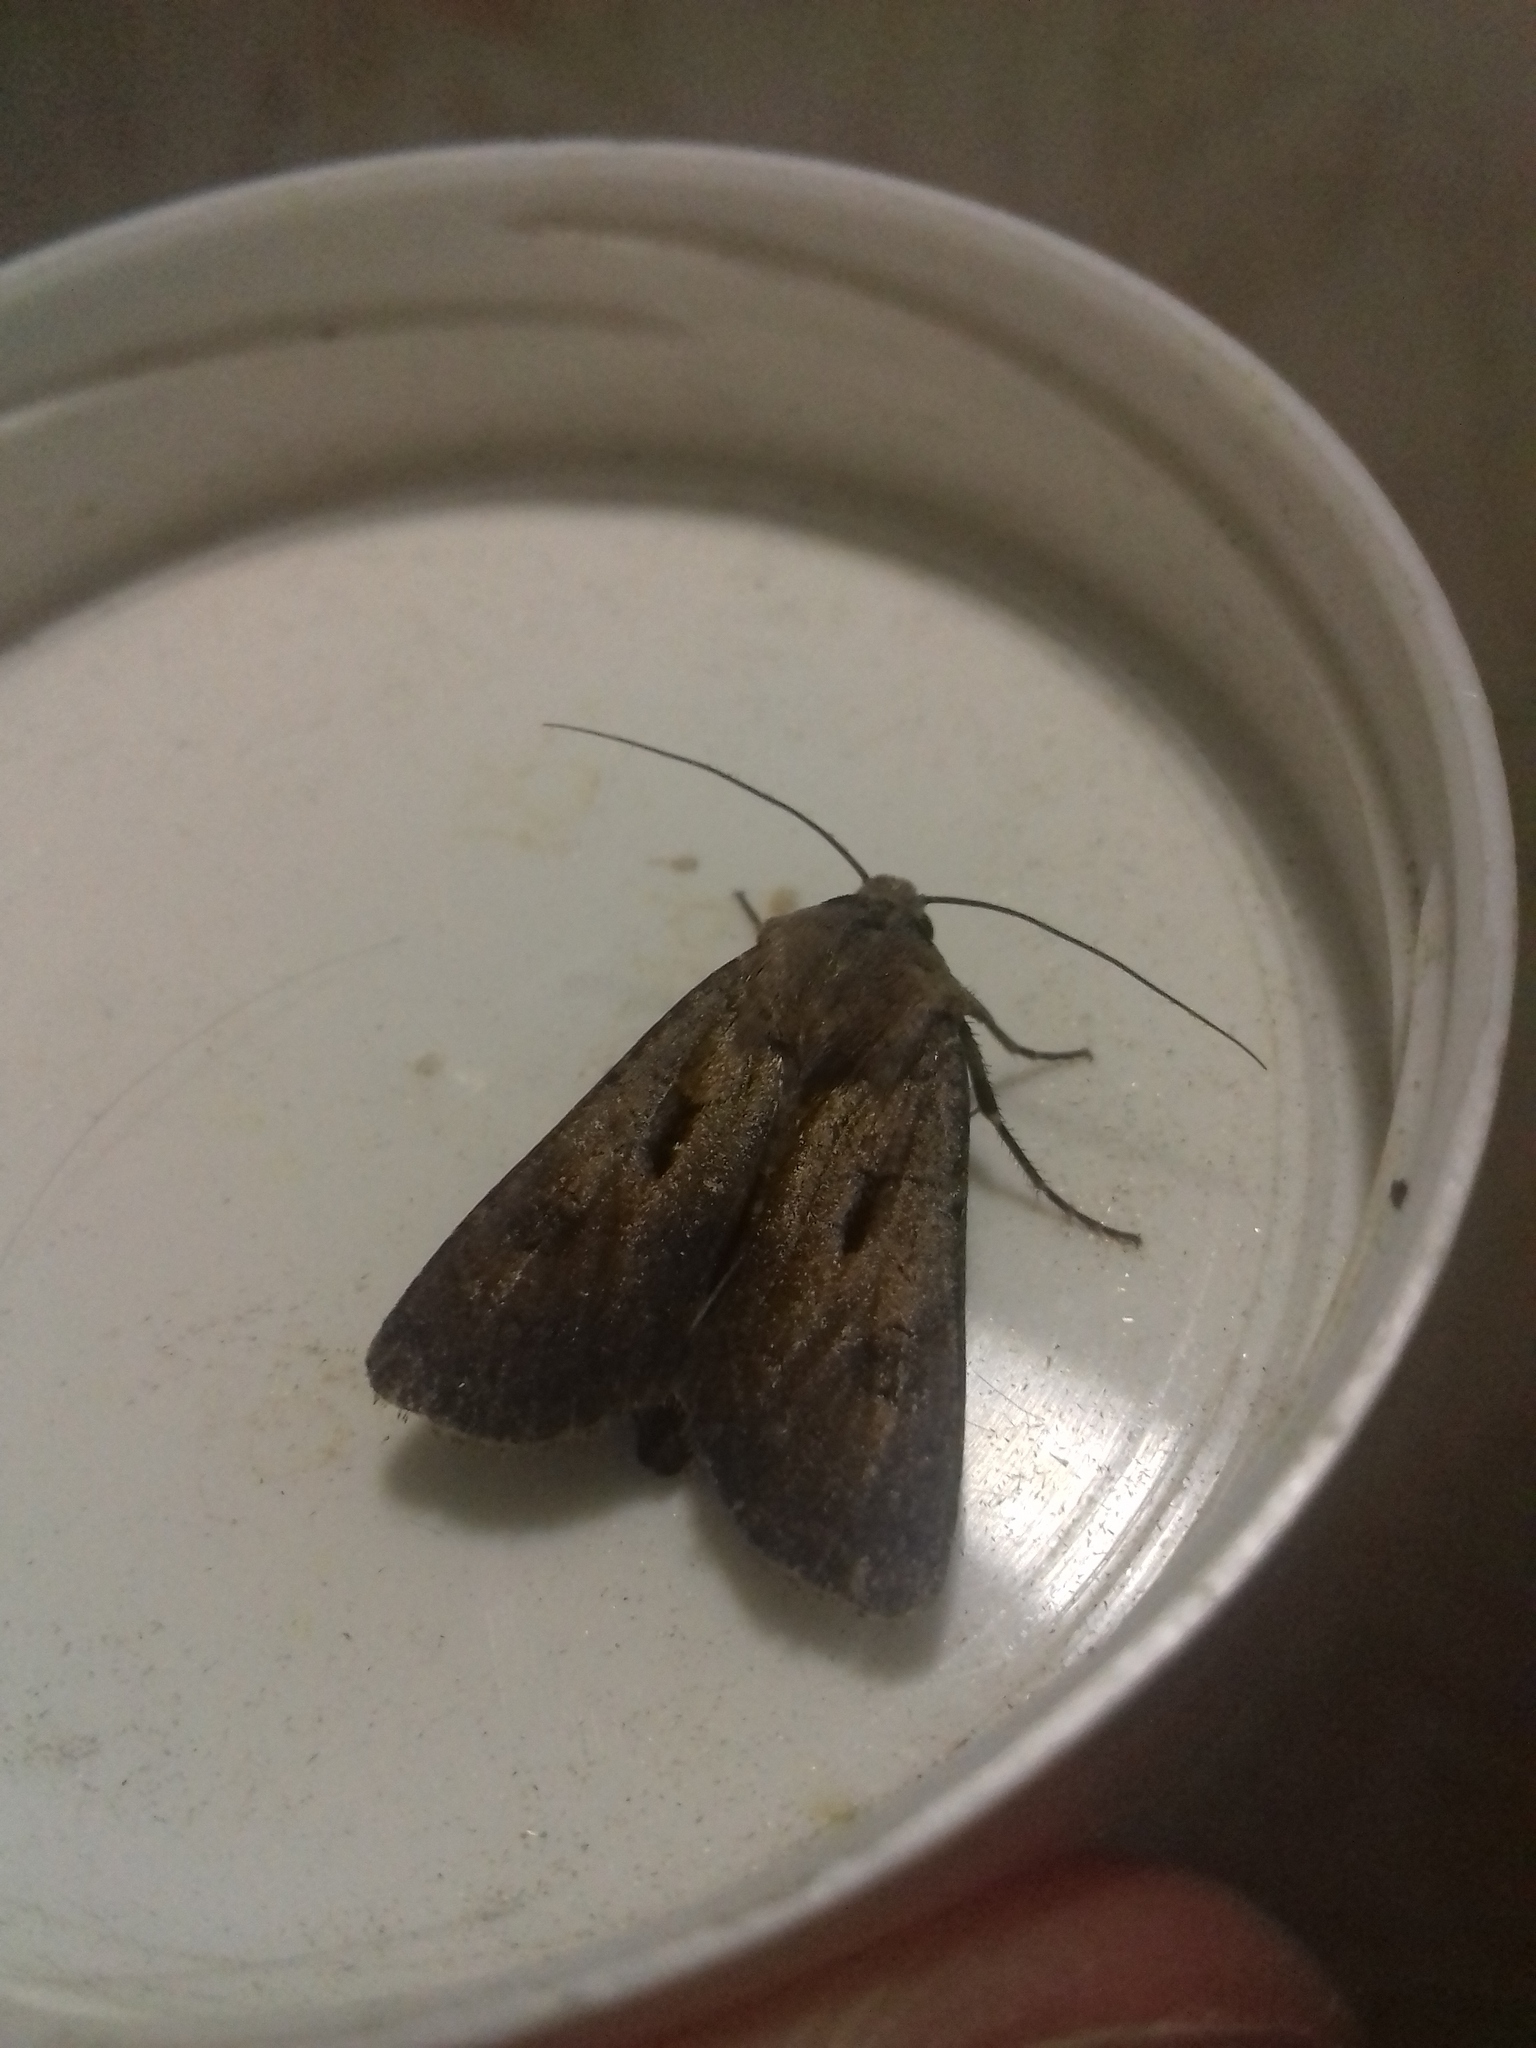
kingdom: Animalia
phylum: Arthropoda
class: Insecta
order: Lepidoptera
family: Noctuidae
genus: Agrotis
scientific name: Agrotis exclamationis
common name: Heart and dart
